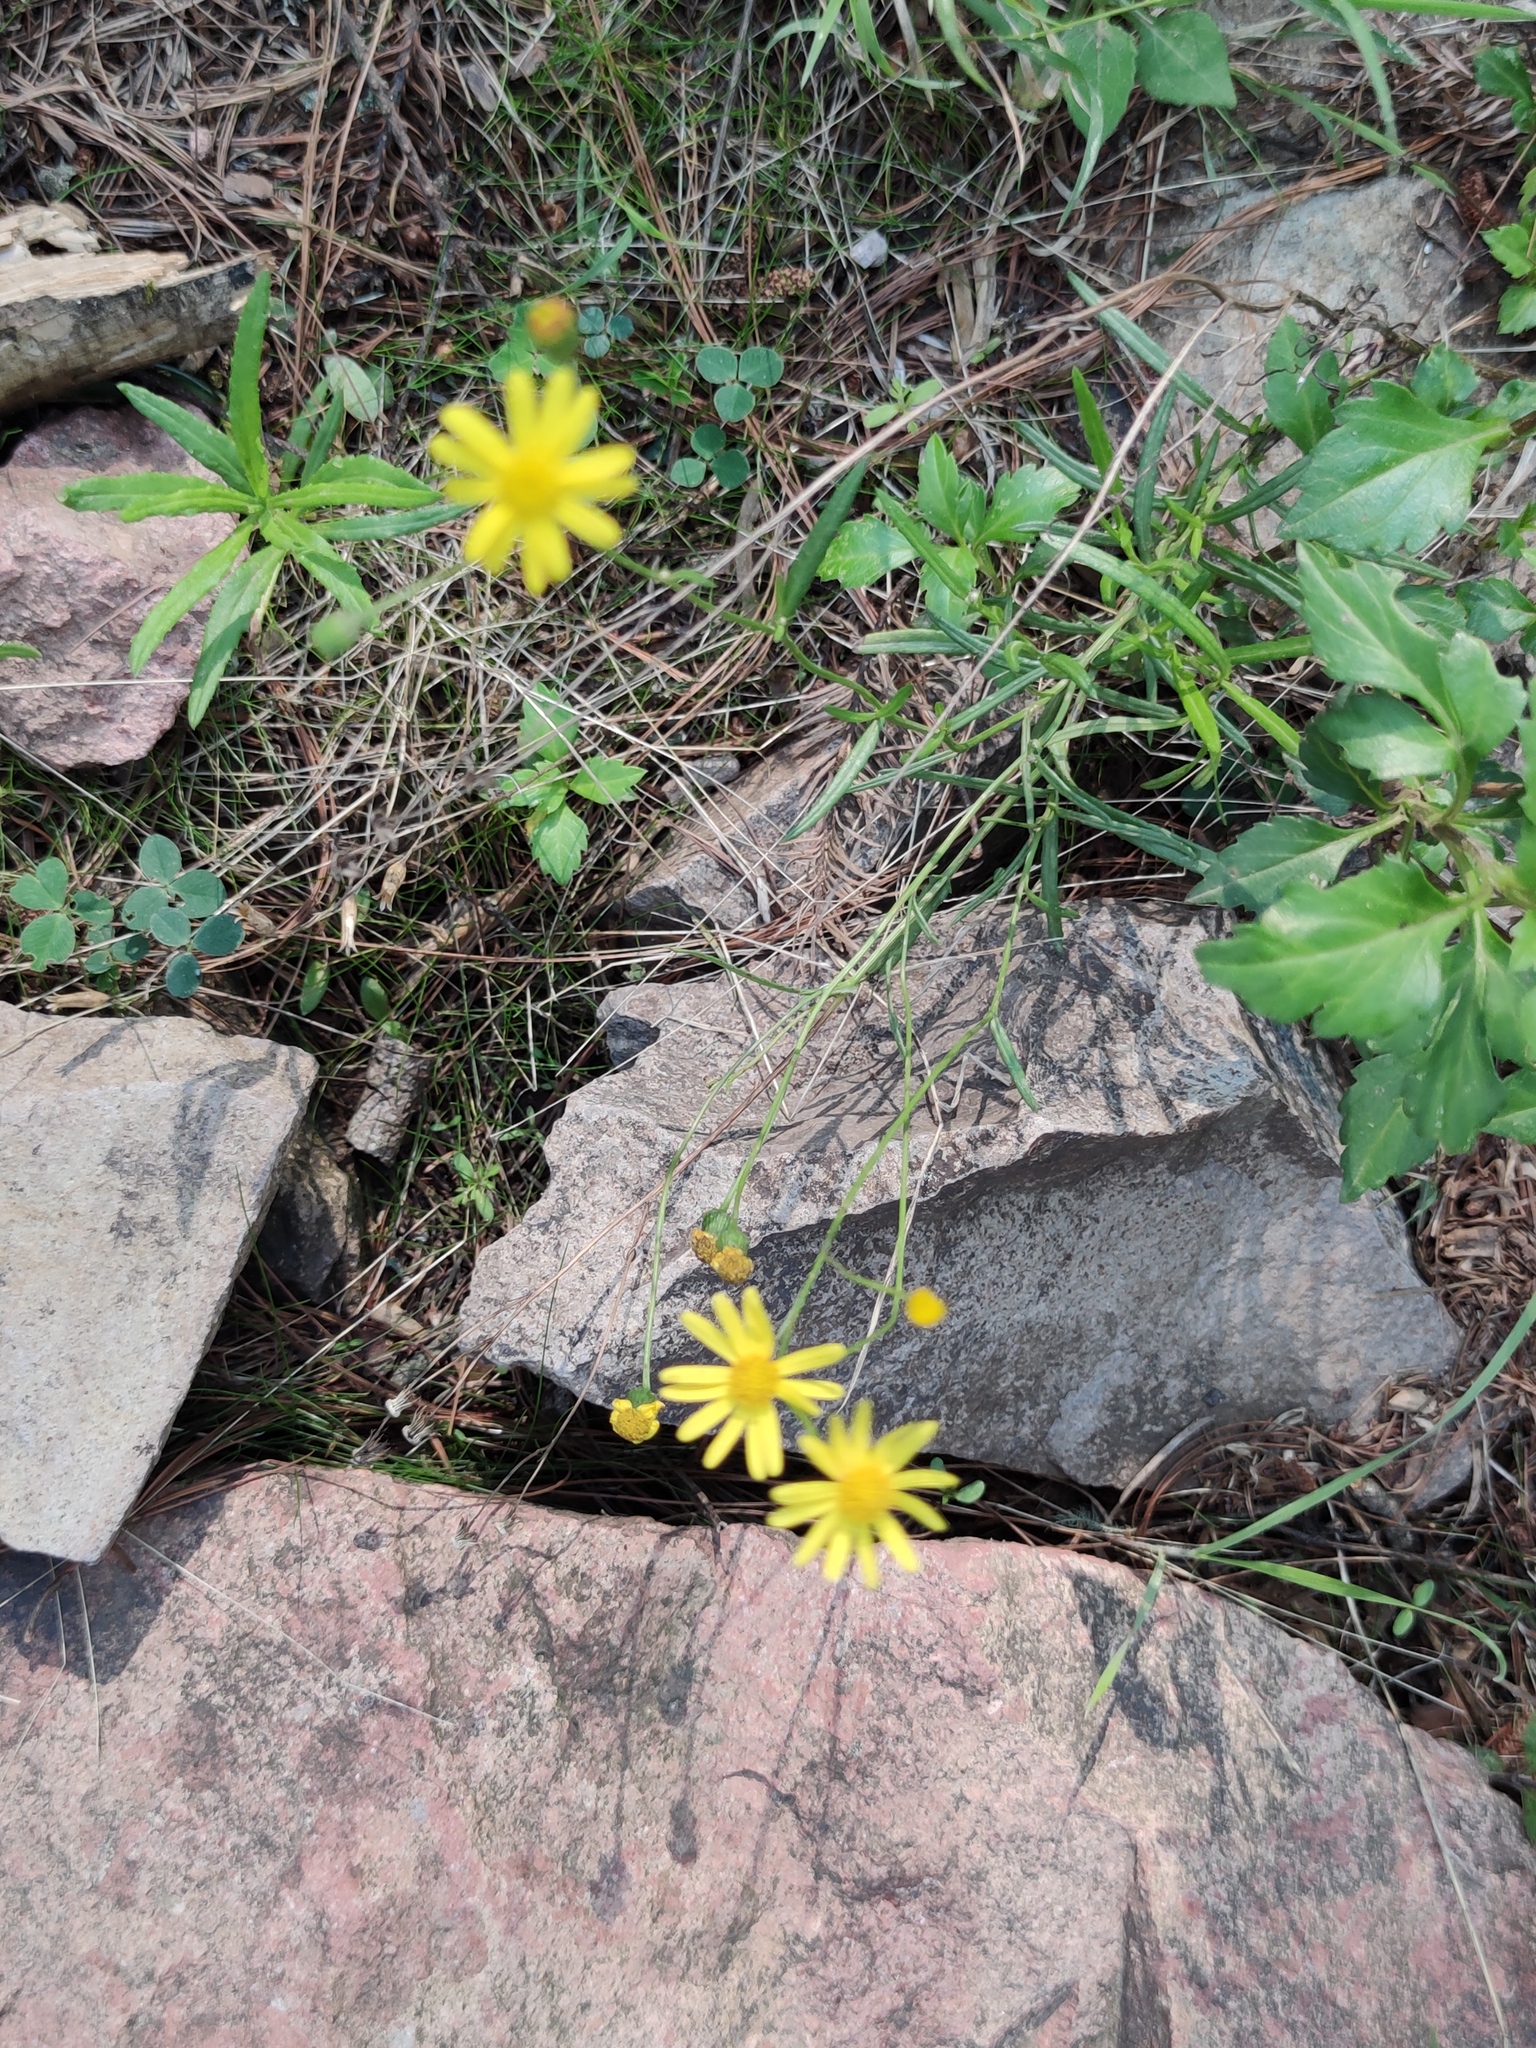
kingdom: Plantae
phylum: Tracheophyta
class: Magnoliopsida
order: Asterales
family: Asteraceae
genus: Senecio
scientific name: Senecio inaequidens
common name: Narrow-leaved ragwort
